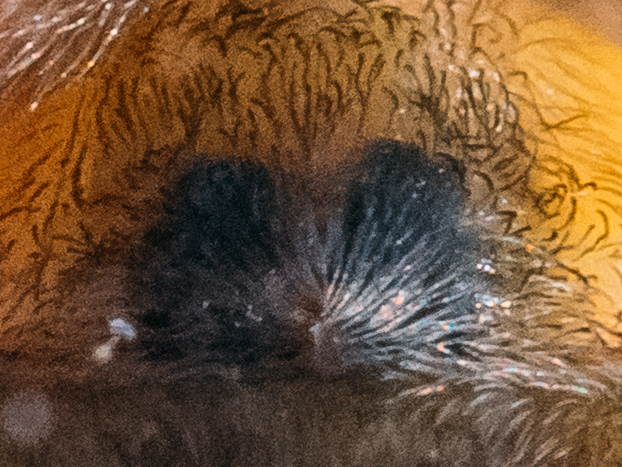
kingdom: Animalia
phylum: Arthropoda
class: Arachnida
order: Araneae
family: Cheiracanthiidae
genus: Cheiracanthium
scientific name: Cheiracanthium erraticum
